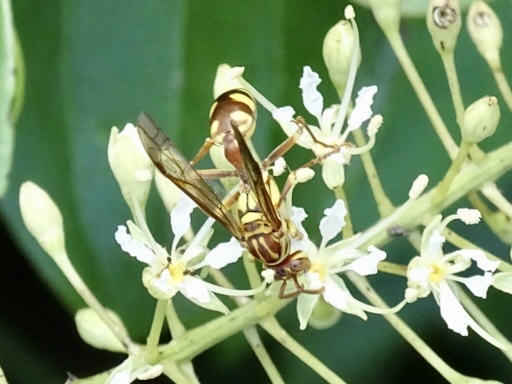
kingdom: Animalia
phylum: Arthropoda
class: Insecta
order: Hymenoptera
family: Vespidae
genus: Parapolybia
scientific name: Parapolybia varia
